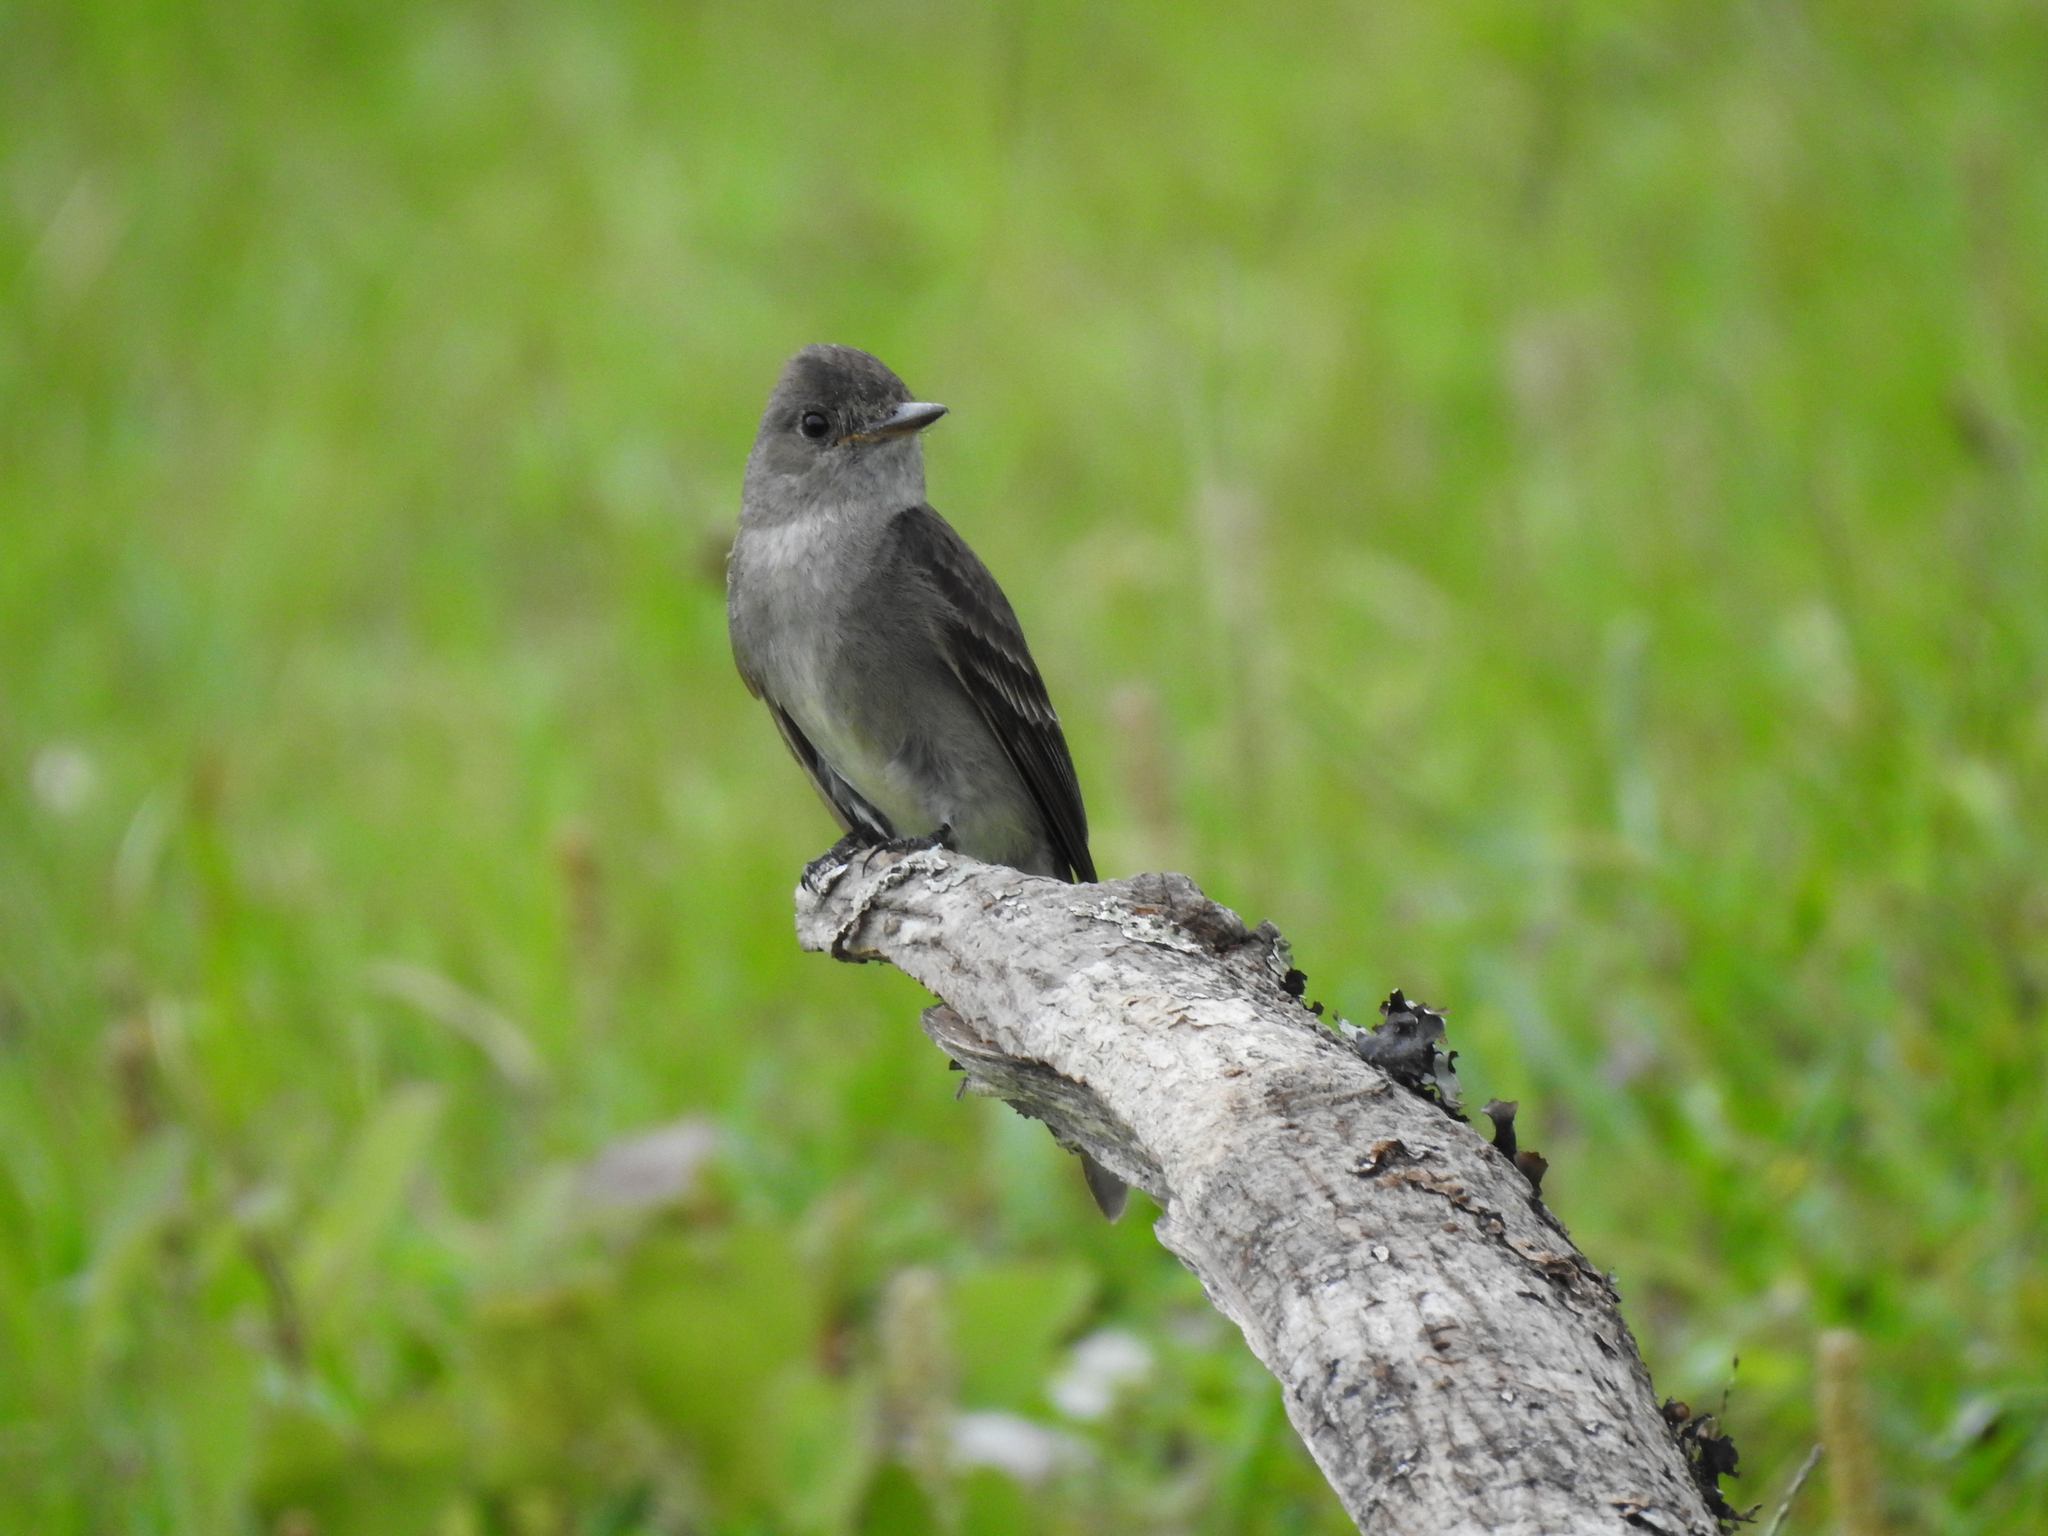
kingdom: Animalia
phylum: Chordata
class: Aves
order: Passeriformes
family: Tyrannidae
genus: Contopus
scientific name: Contopus sordidulus
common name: Western wood-pewee
